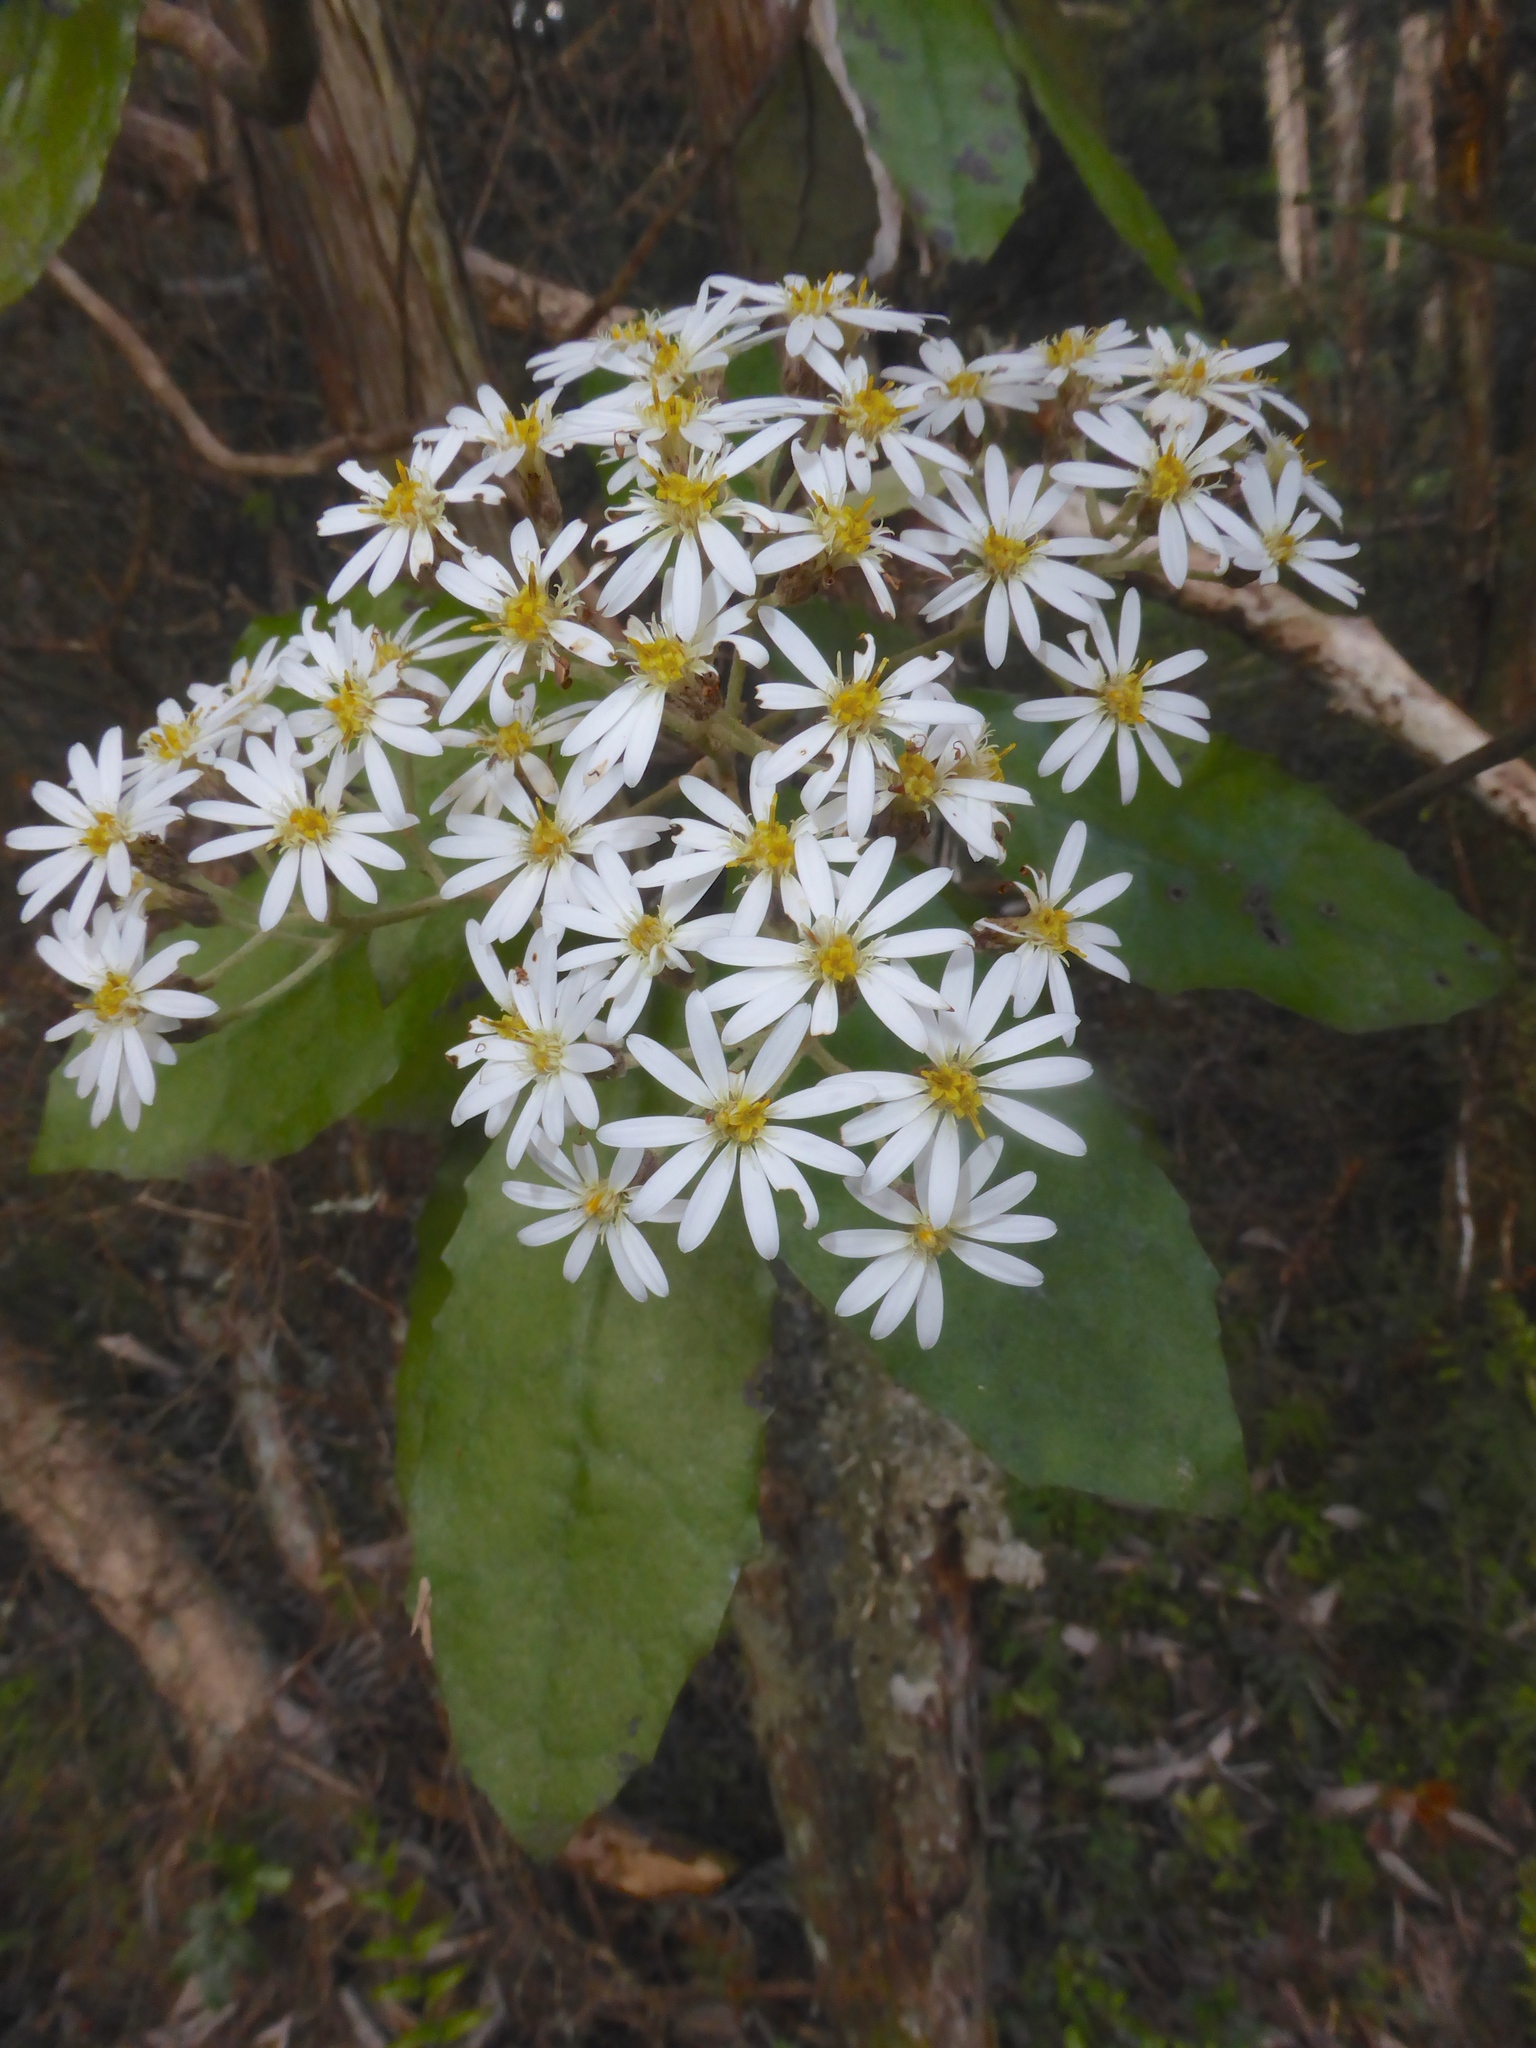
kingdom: Plantae
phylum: Tracheophyta
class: Magnoliopsida
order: Asterales
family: Asteraceae
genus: Olearia
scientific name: Olearia rani
